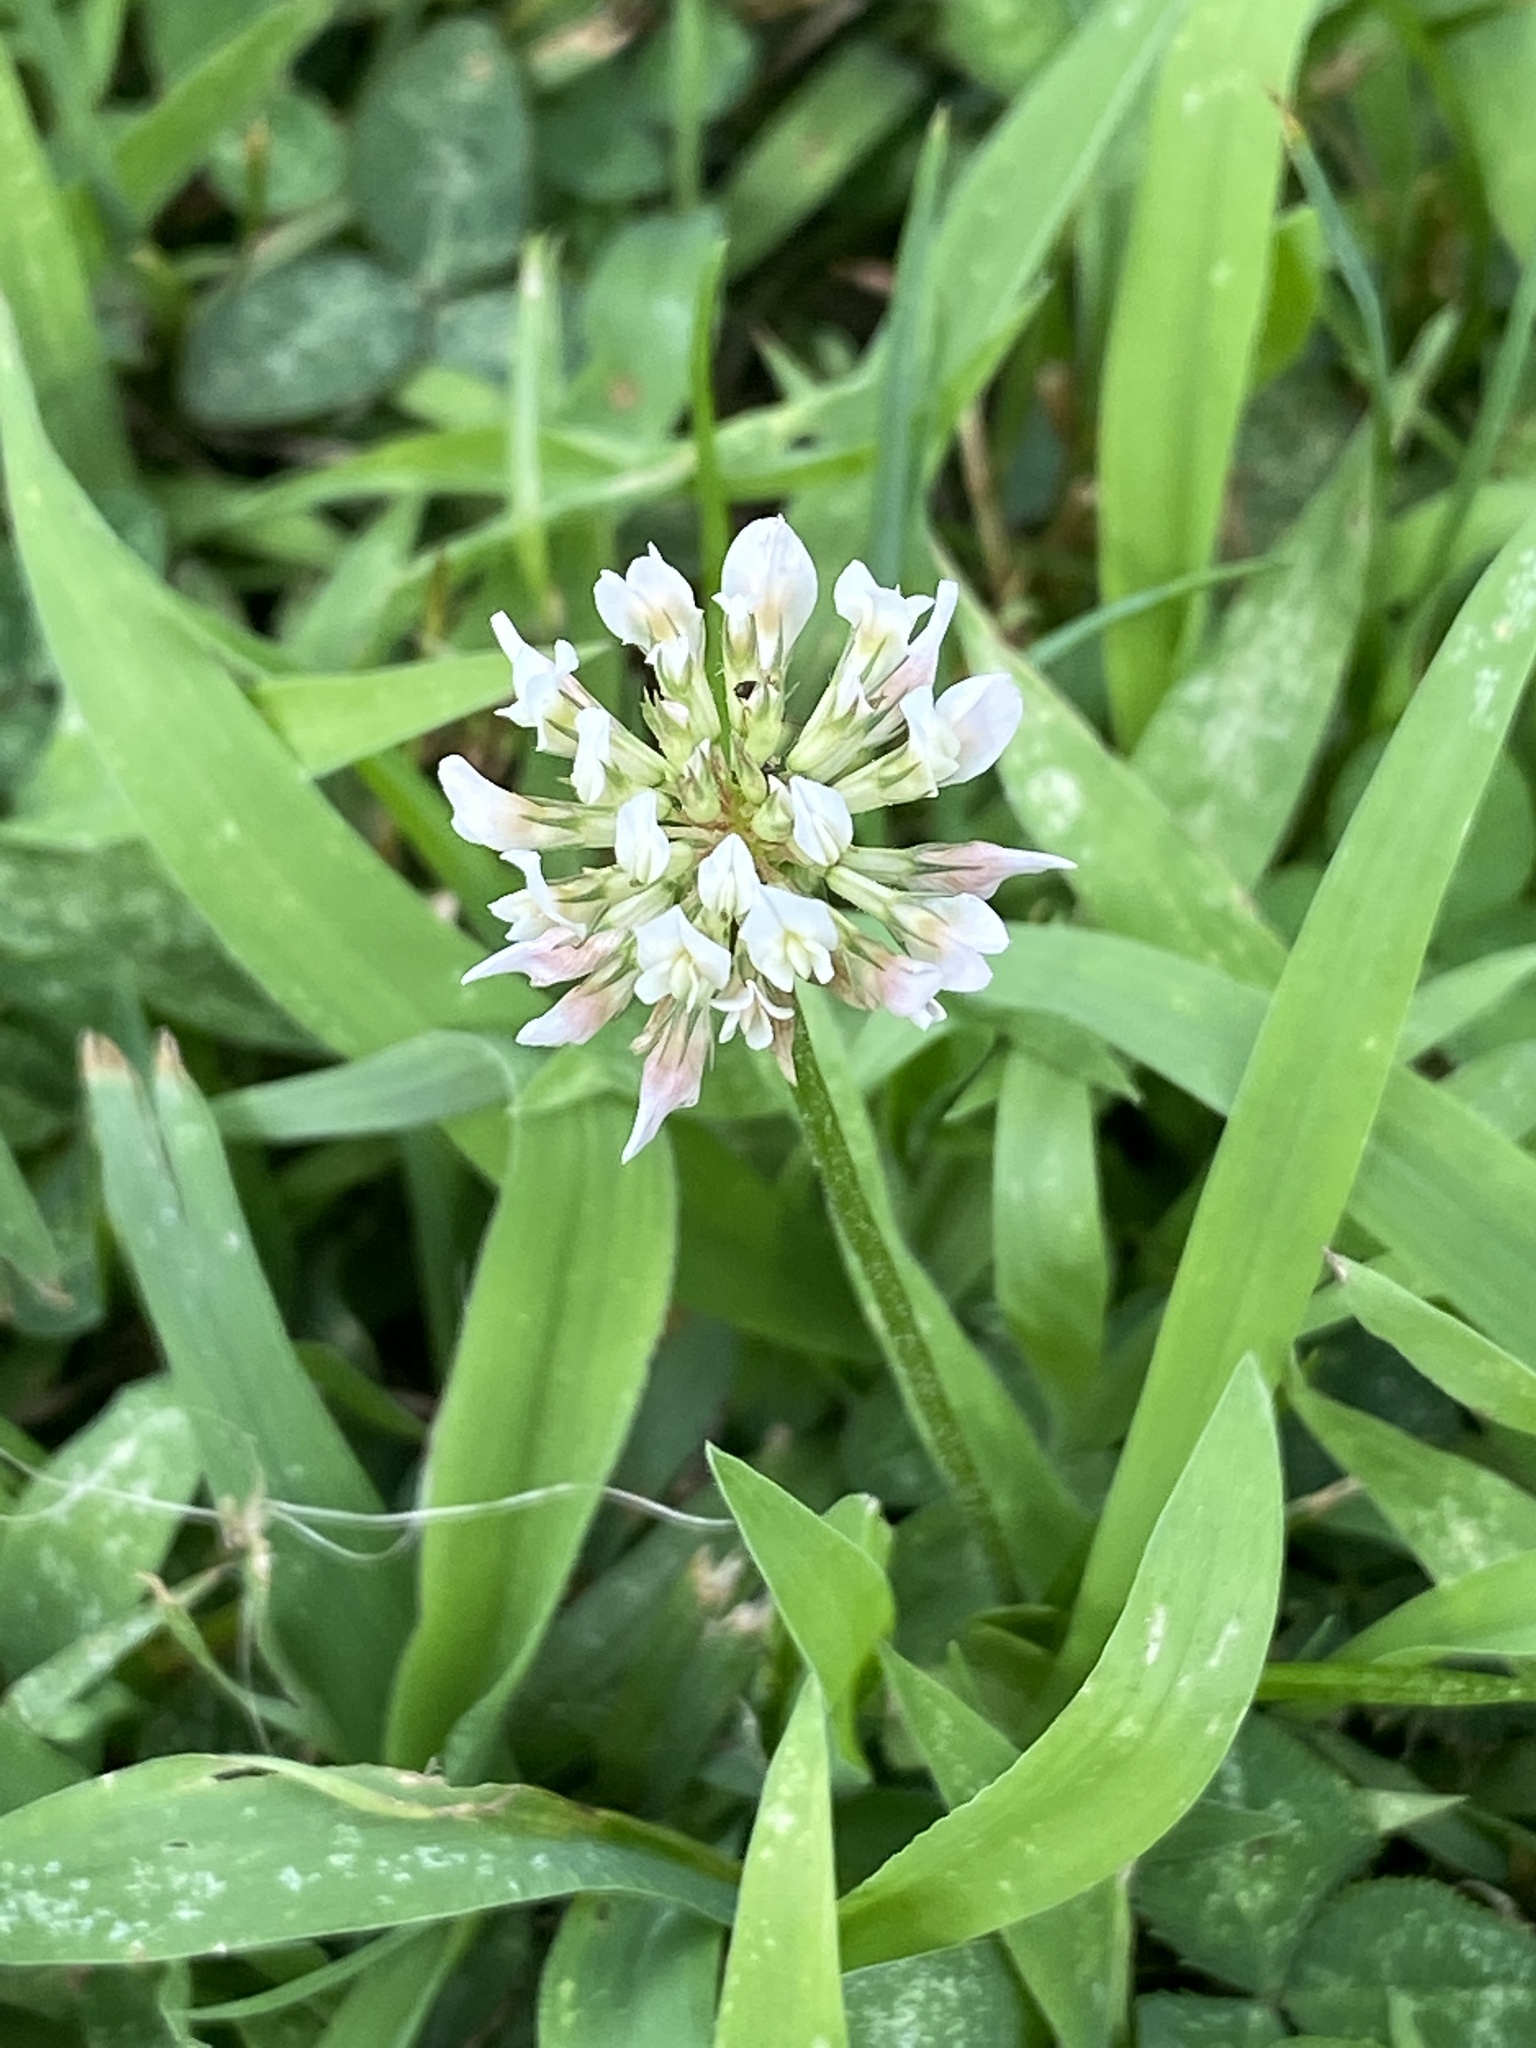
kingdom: Plantae
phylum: Tracheophyta
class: Magnoliopsida
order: Fabales
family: Fabaceae
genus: Trifolium
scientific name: Trifolium repens
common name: White clover
